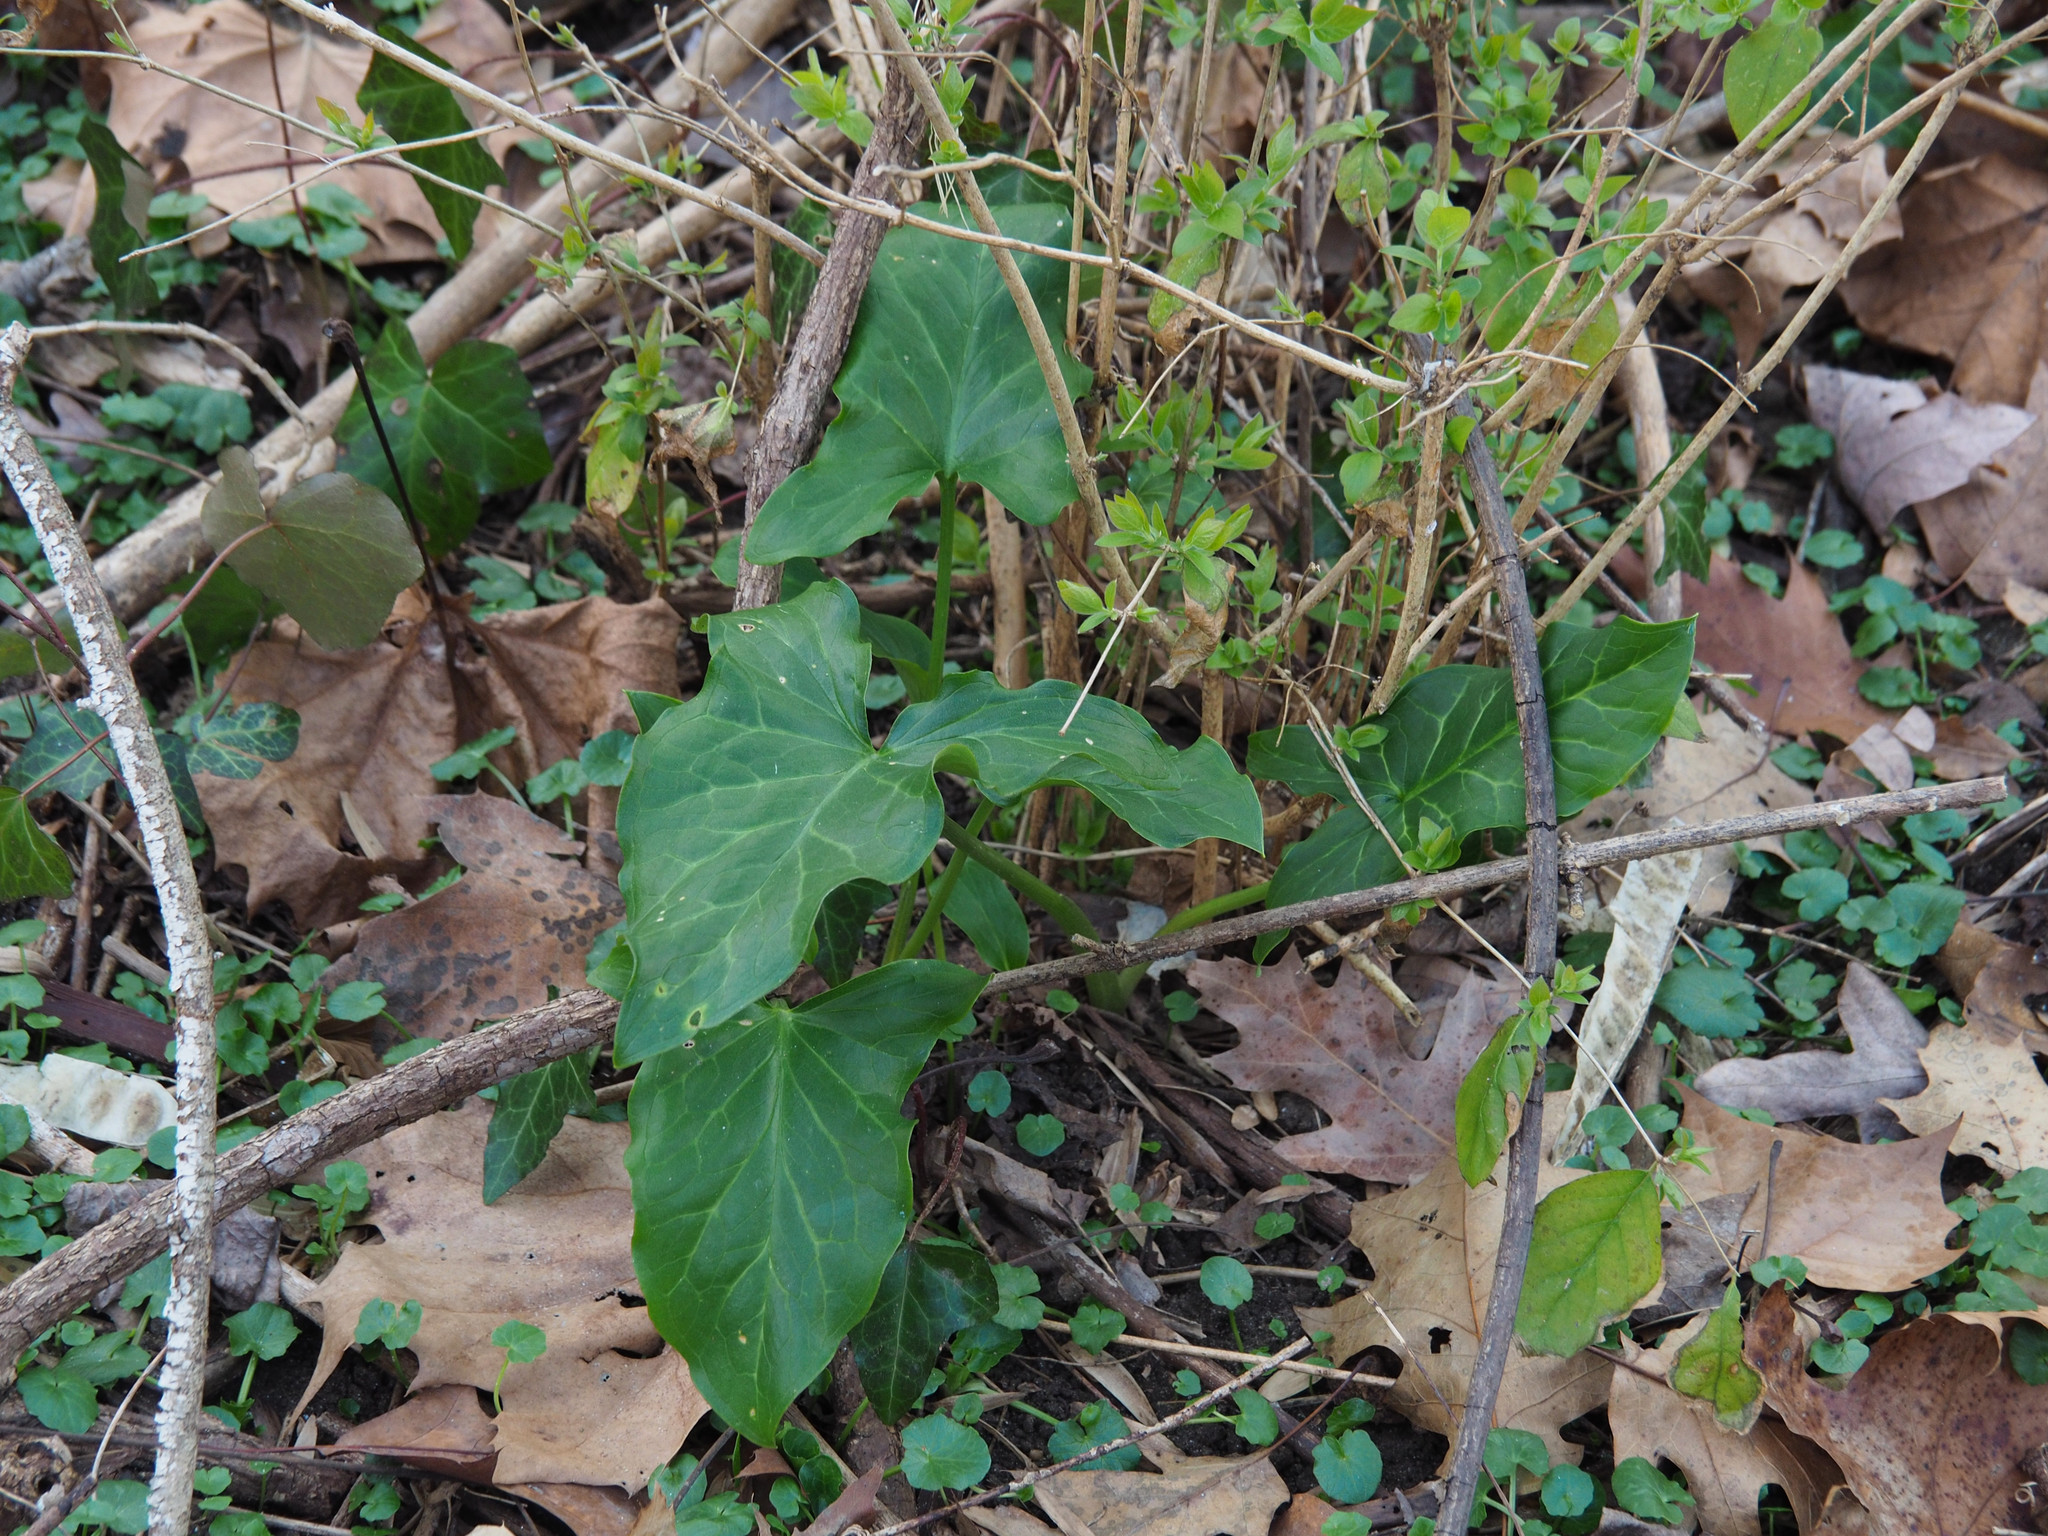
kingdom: Plantae
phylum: Tracheophyta
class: Liliopsida
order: Alismatales
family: Araceae
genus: Arum
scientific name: Arum italicum
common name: Italian lords-and-ladies
